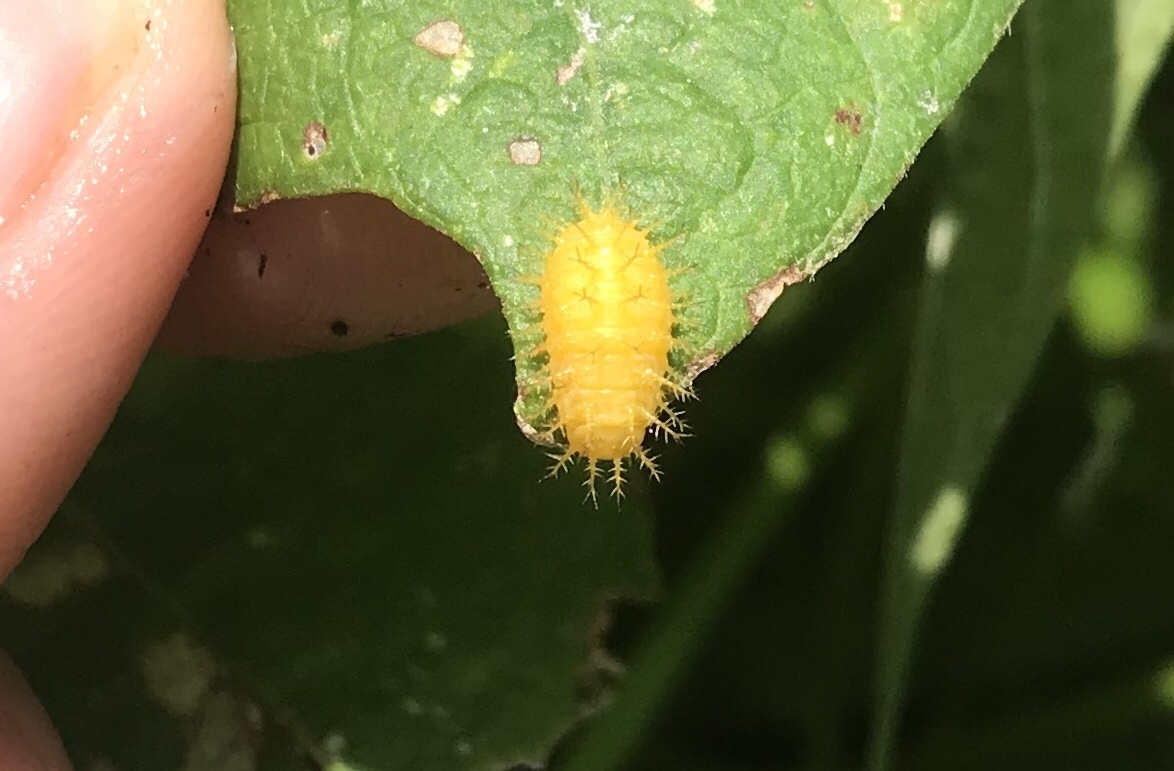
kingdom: Animalia
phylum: Arthropoda
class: Insecta
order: Coleoptera
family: Coccinellidae
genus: Epilachna
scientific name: Epilachna varivestis
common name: Ladybird beetle
